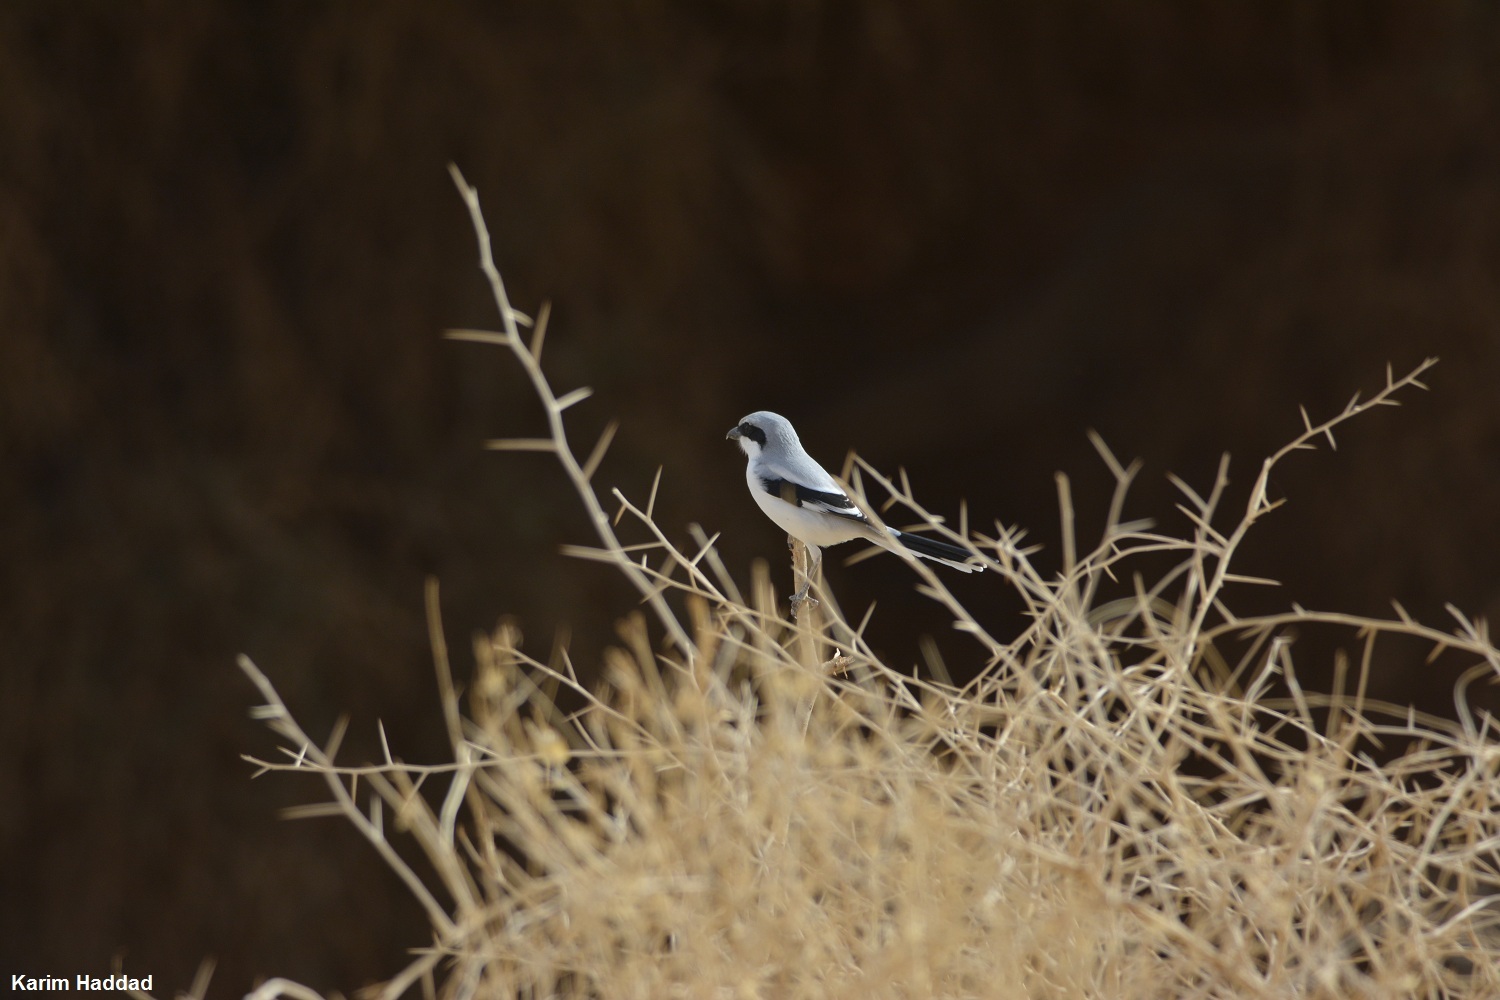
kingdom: Animalia
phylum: Chordata
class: Aves
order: Passeriformes
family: Laniidae
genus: Lanius
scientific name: Lanius excubitor
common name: Great grey shrike
